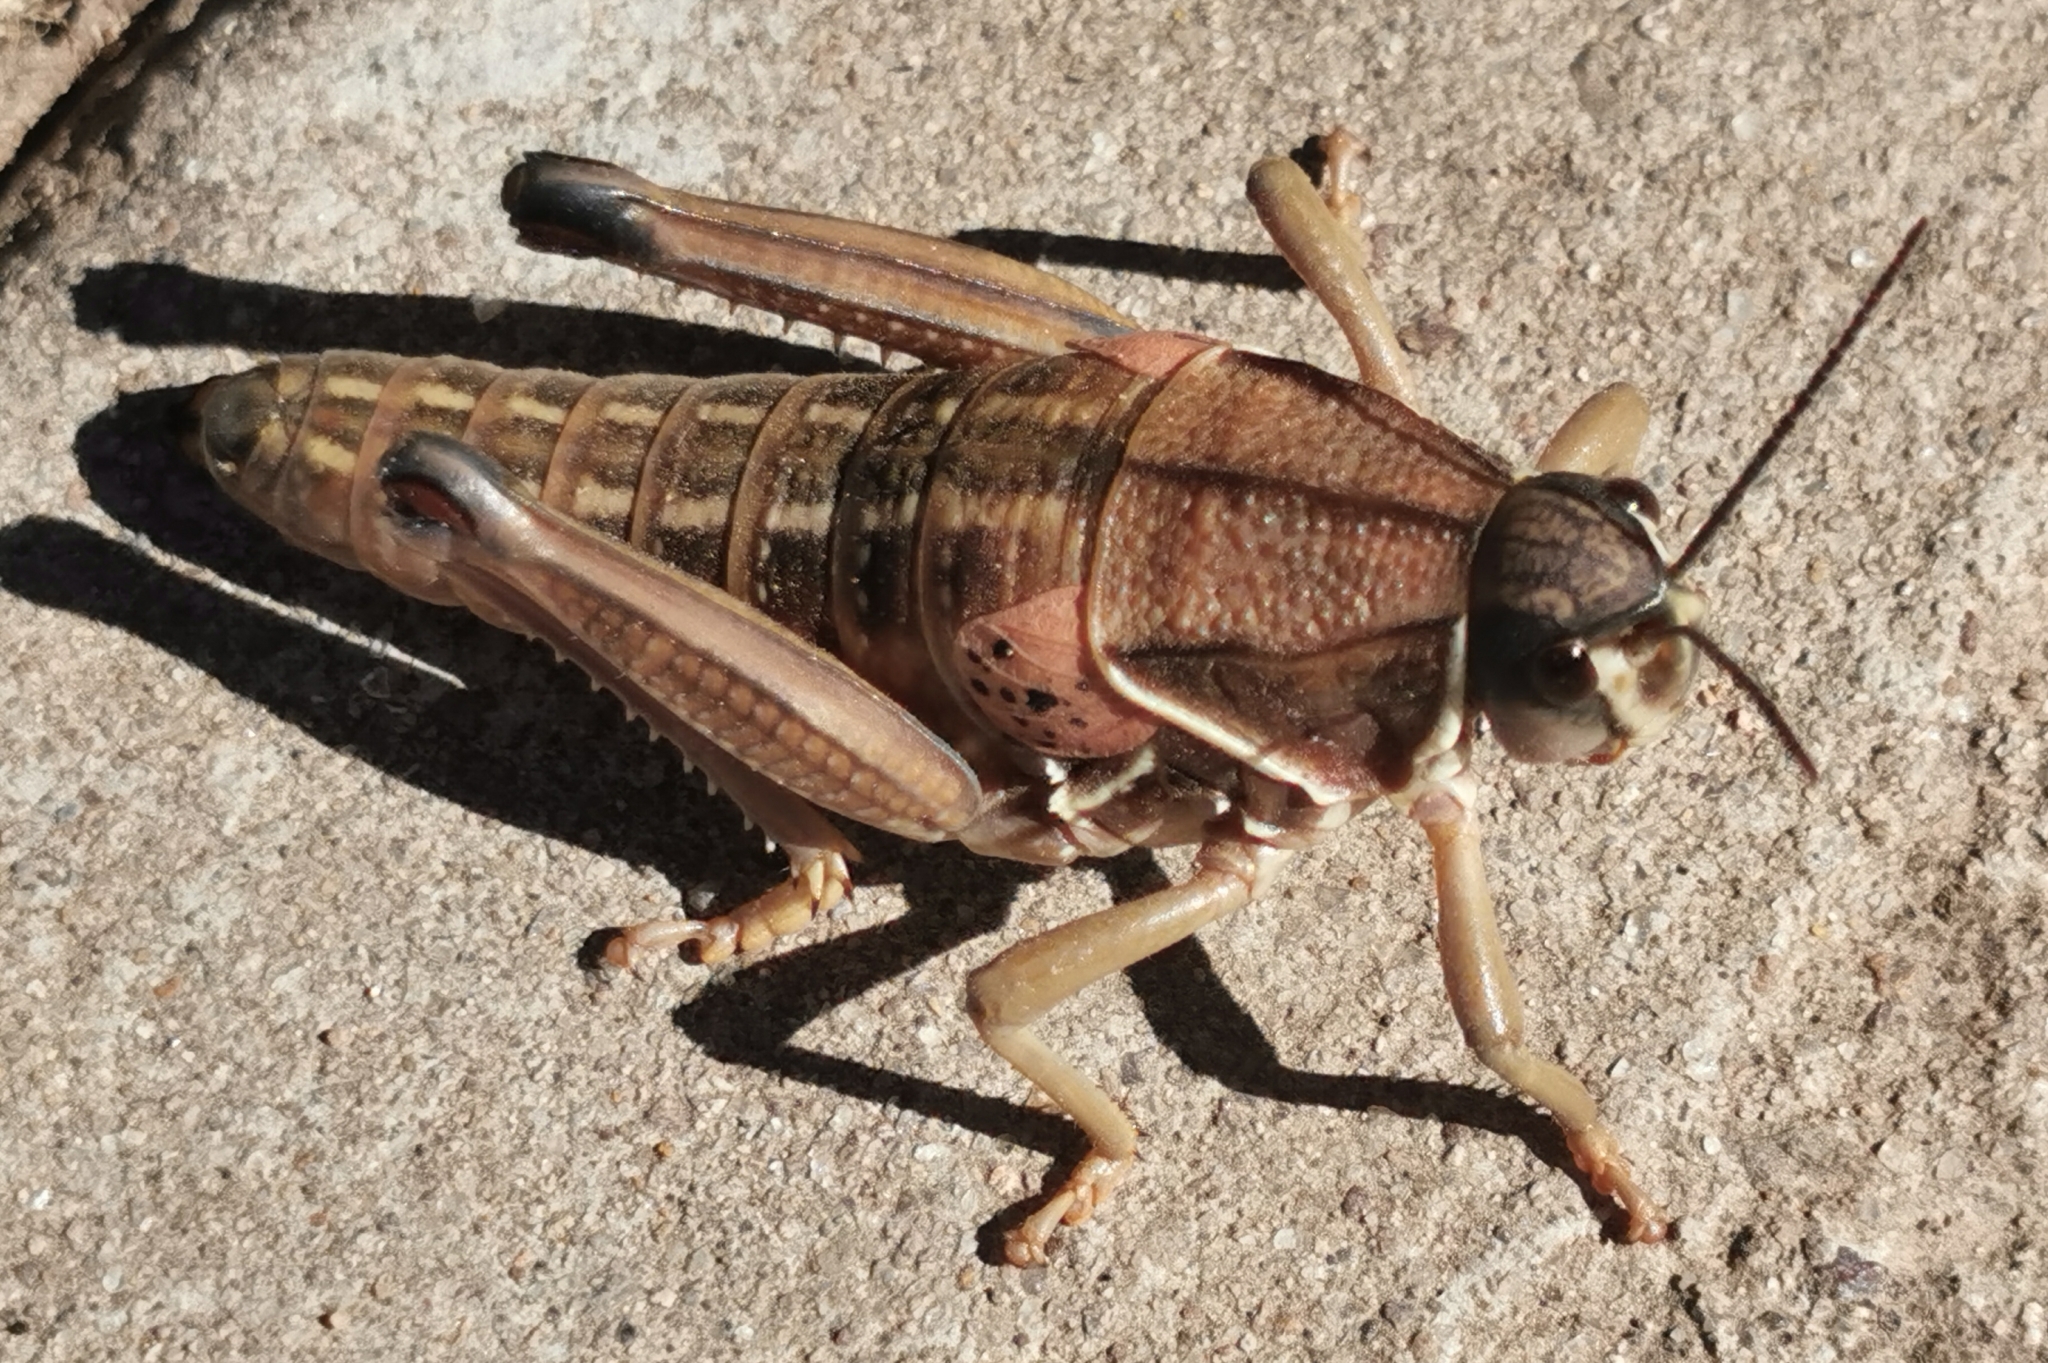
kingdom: Animalia
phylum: Arthropoda
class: Insecta
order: Orthoptera
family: Romaleidae
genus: Brachystola
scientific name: Brachystola magna
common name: Plains lubber grasshopper
